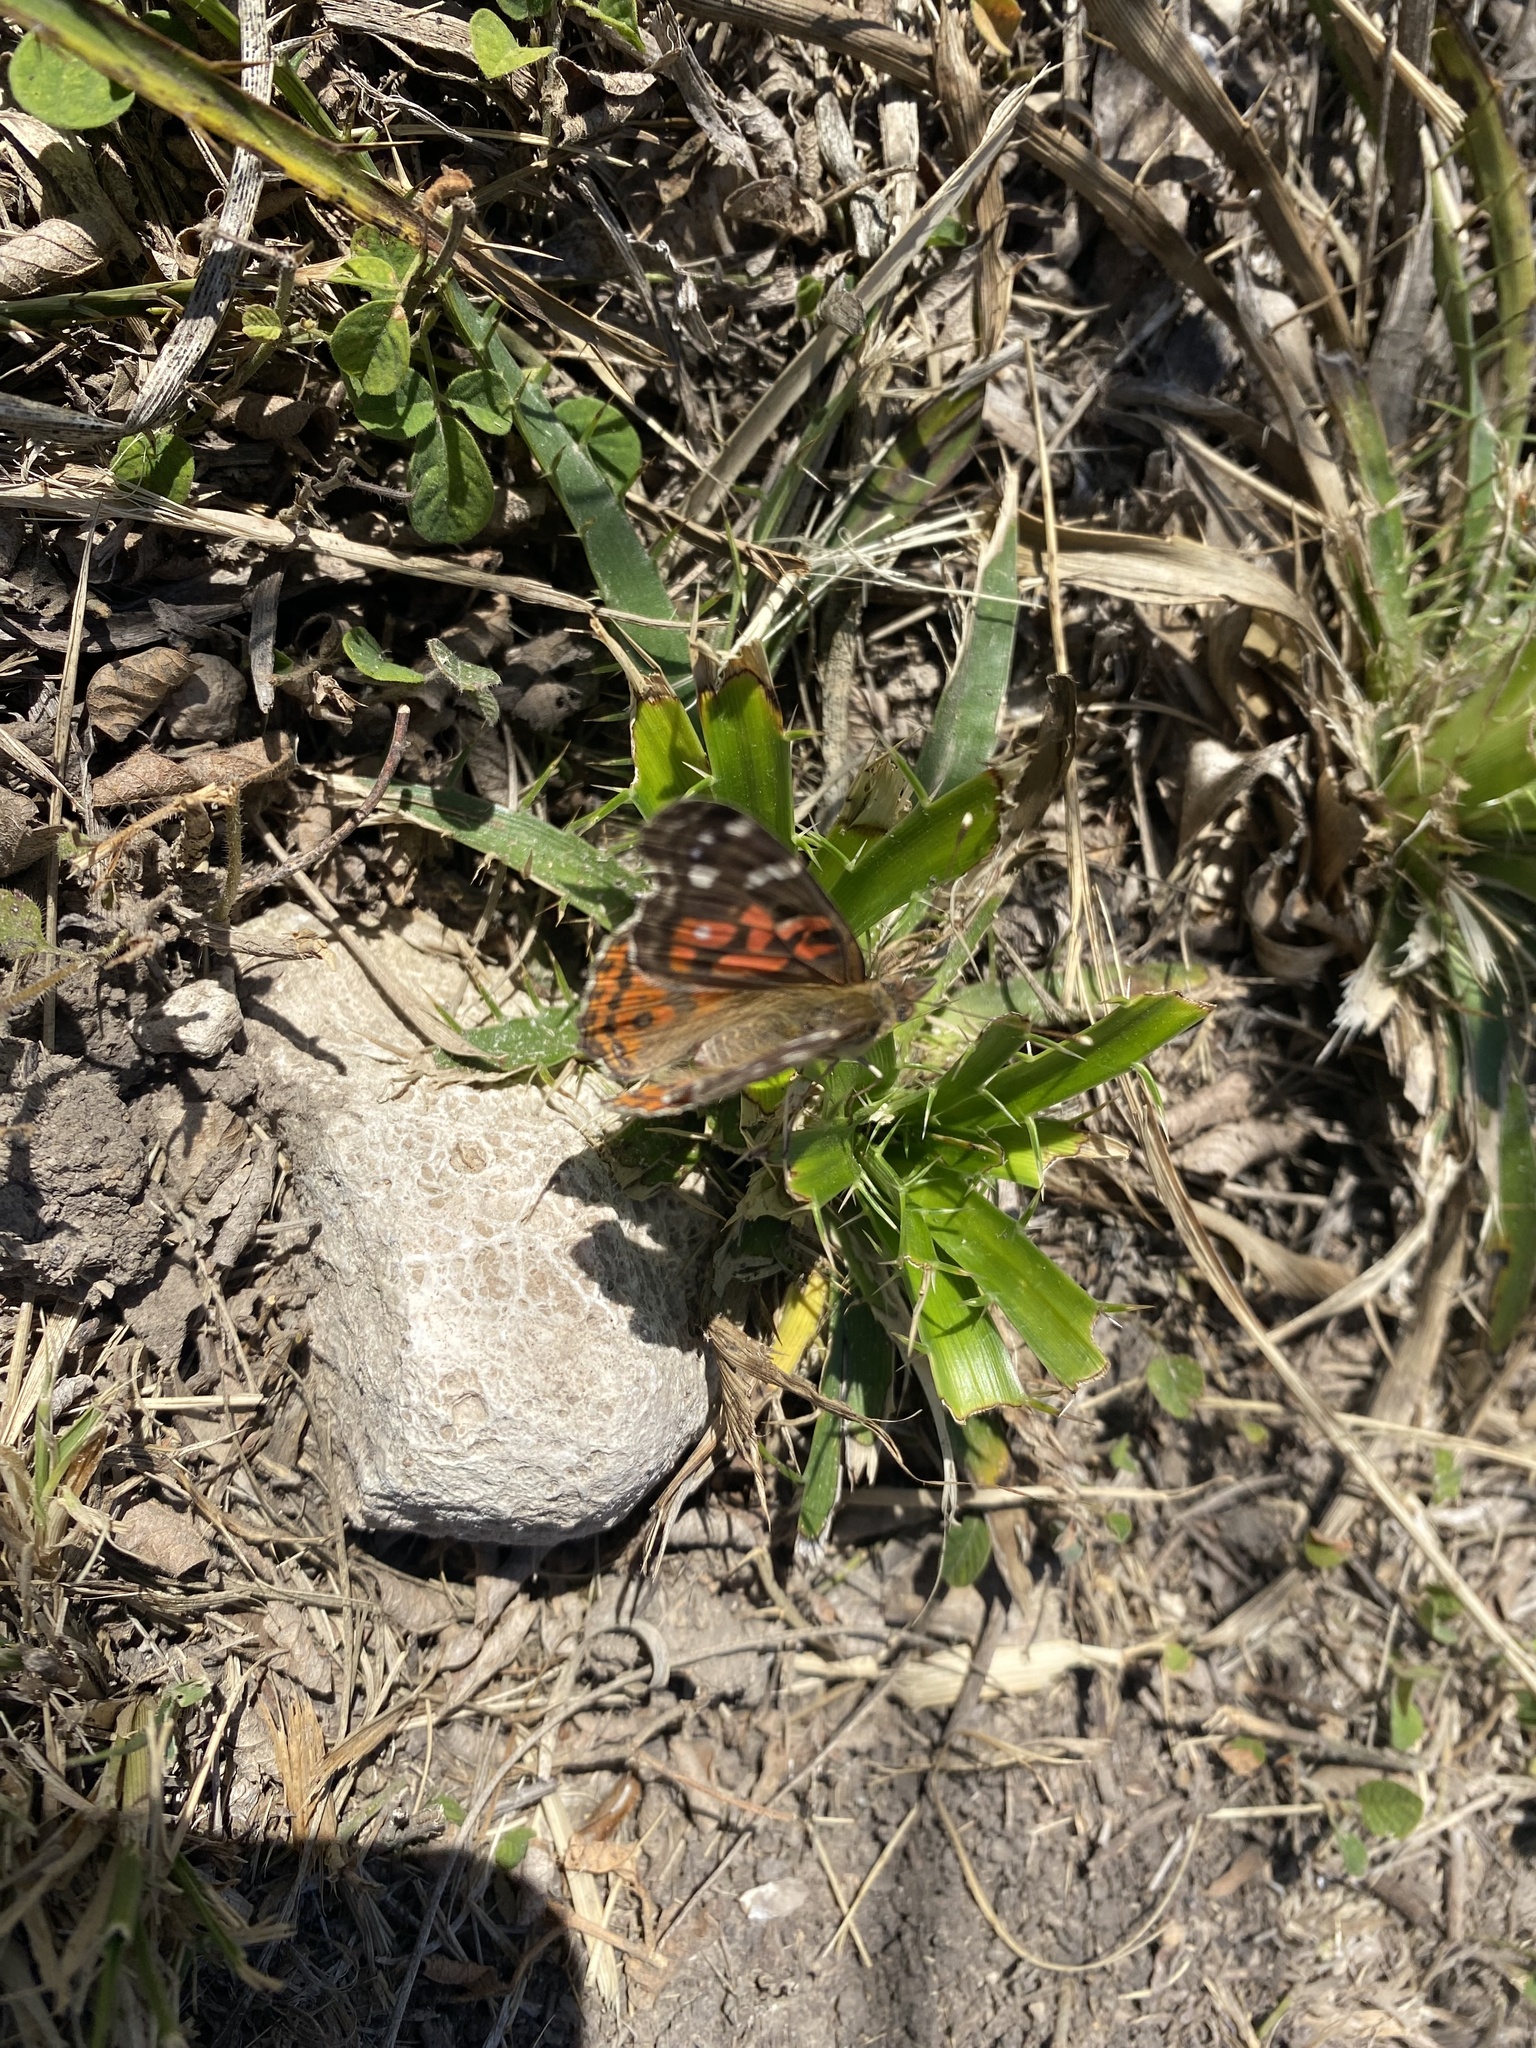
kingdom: Animalia
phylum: Arthropoda
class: Insecta
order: Lepidoptera
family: Nymphalidae
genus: Vanessa
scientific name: Vanessa braziliensis
